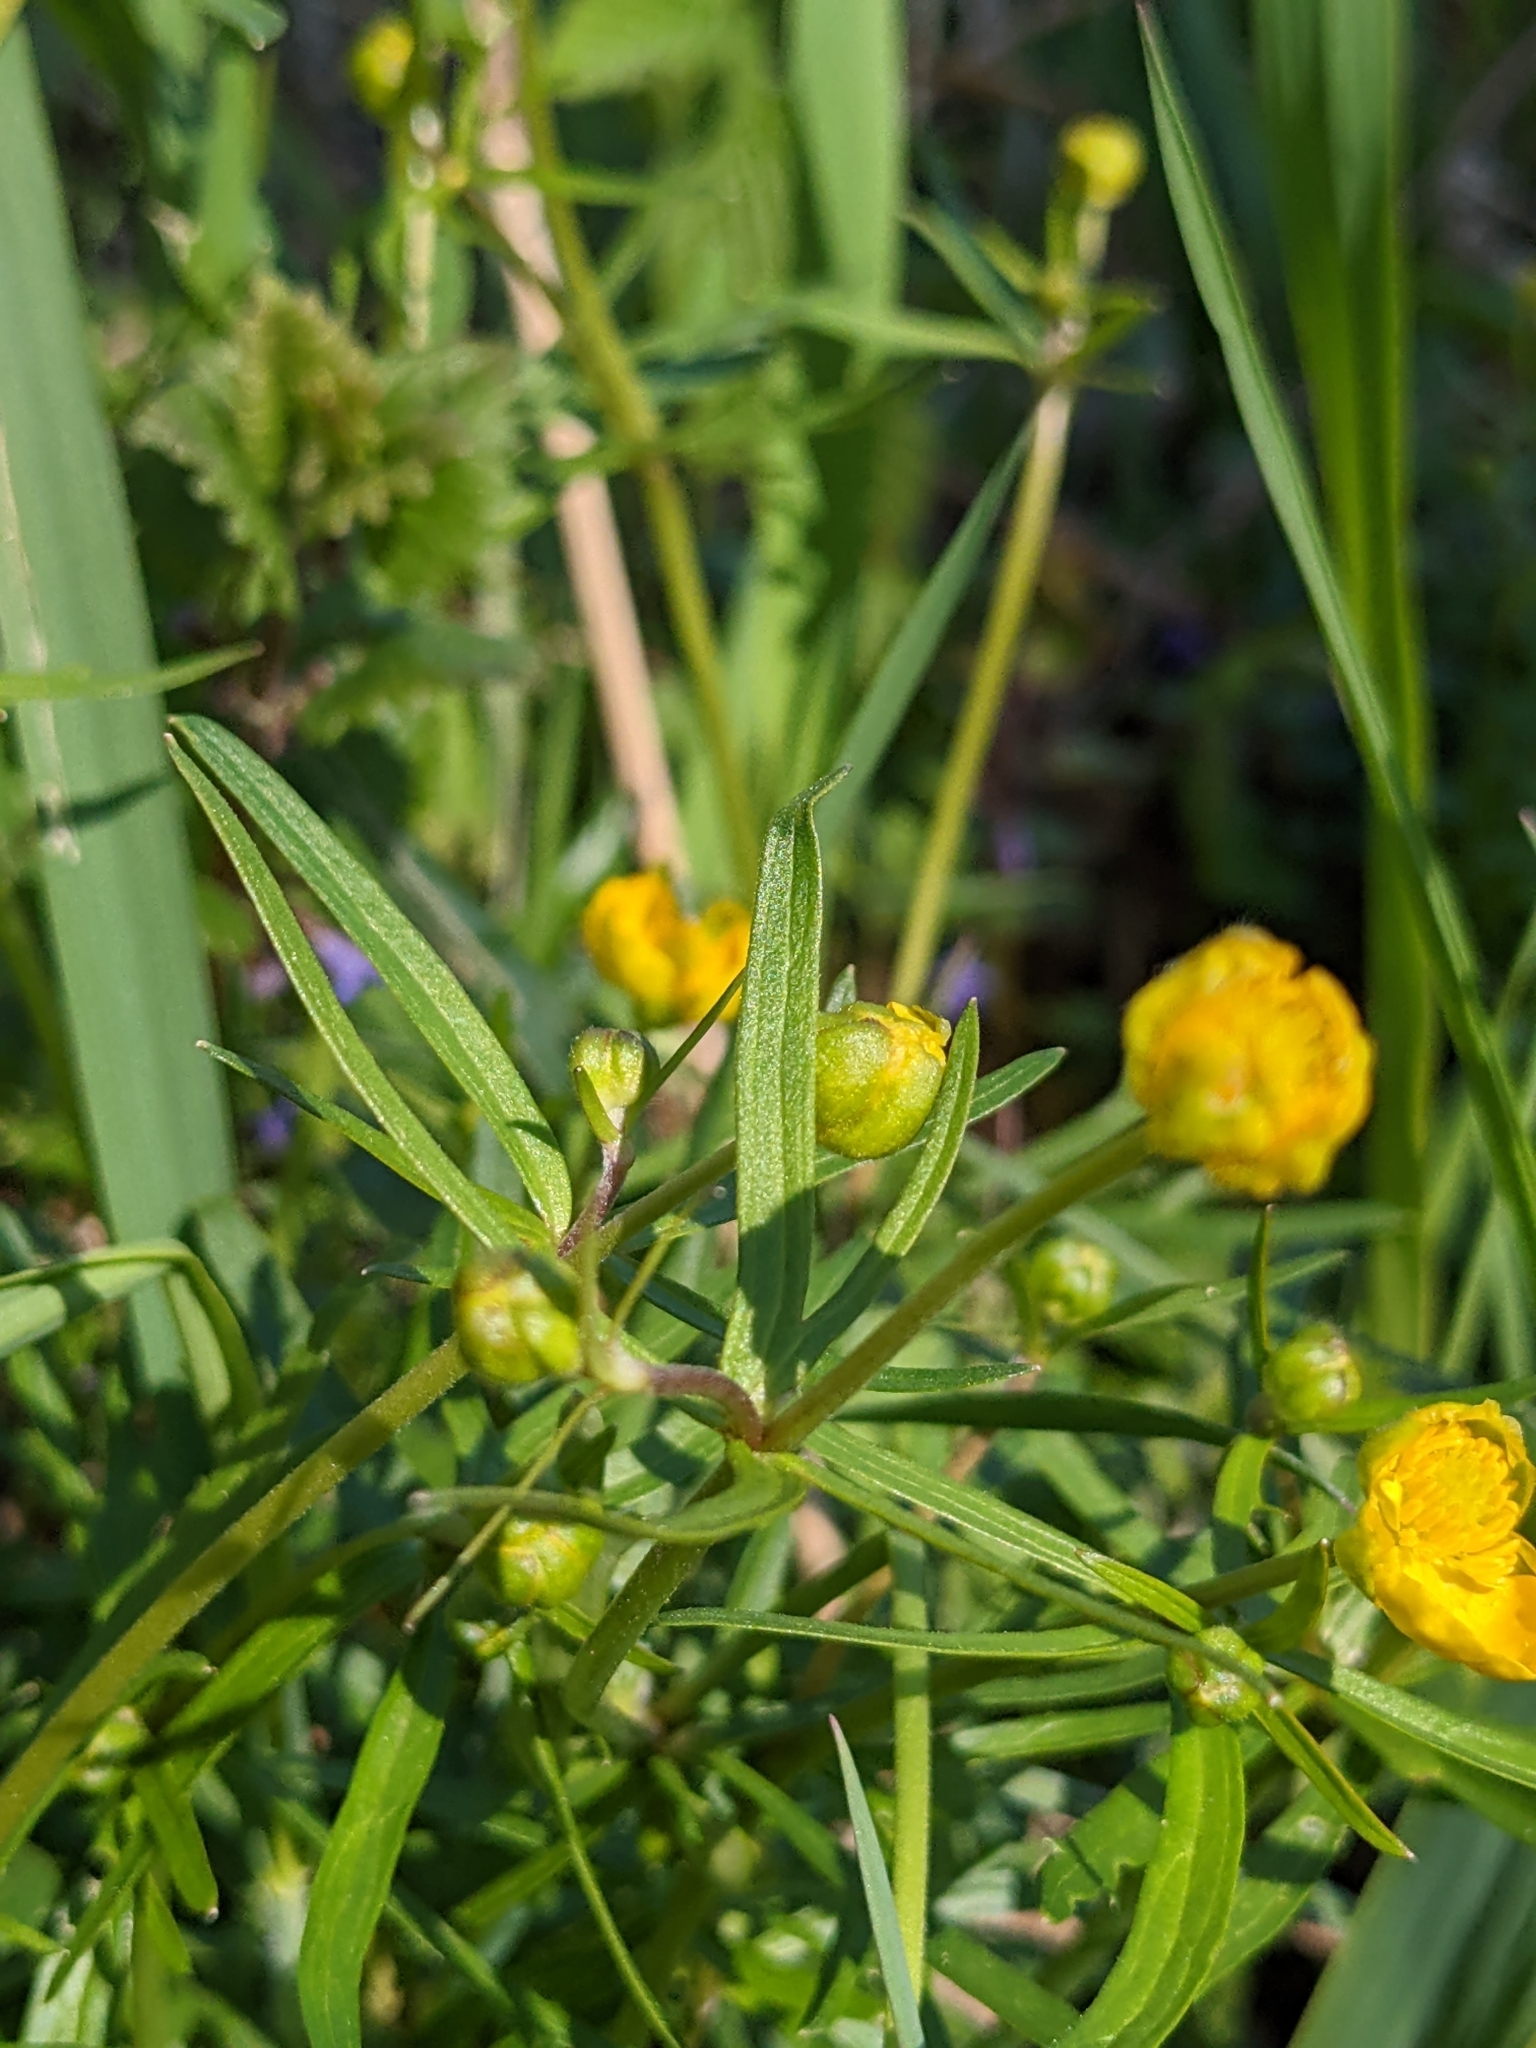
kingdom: Plantae
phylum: Tracheophyta
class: Magnoliopsida
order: Ranunculales
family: Ranunculaceae
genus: Ranunculus
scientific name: Ranunculus auricomus
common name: Goldilocks buttercup
